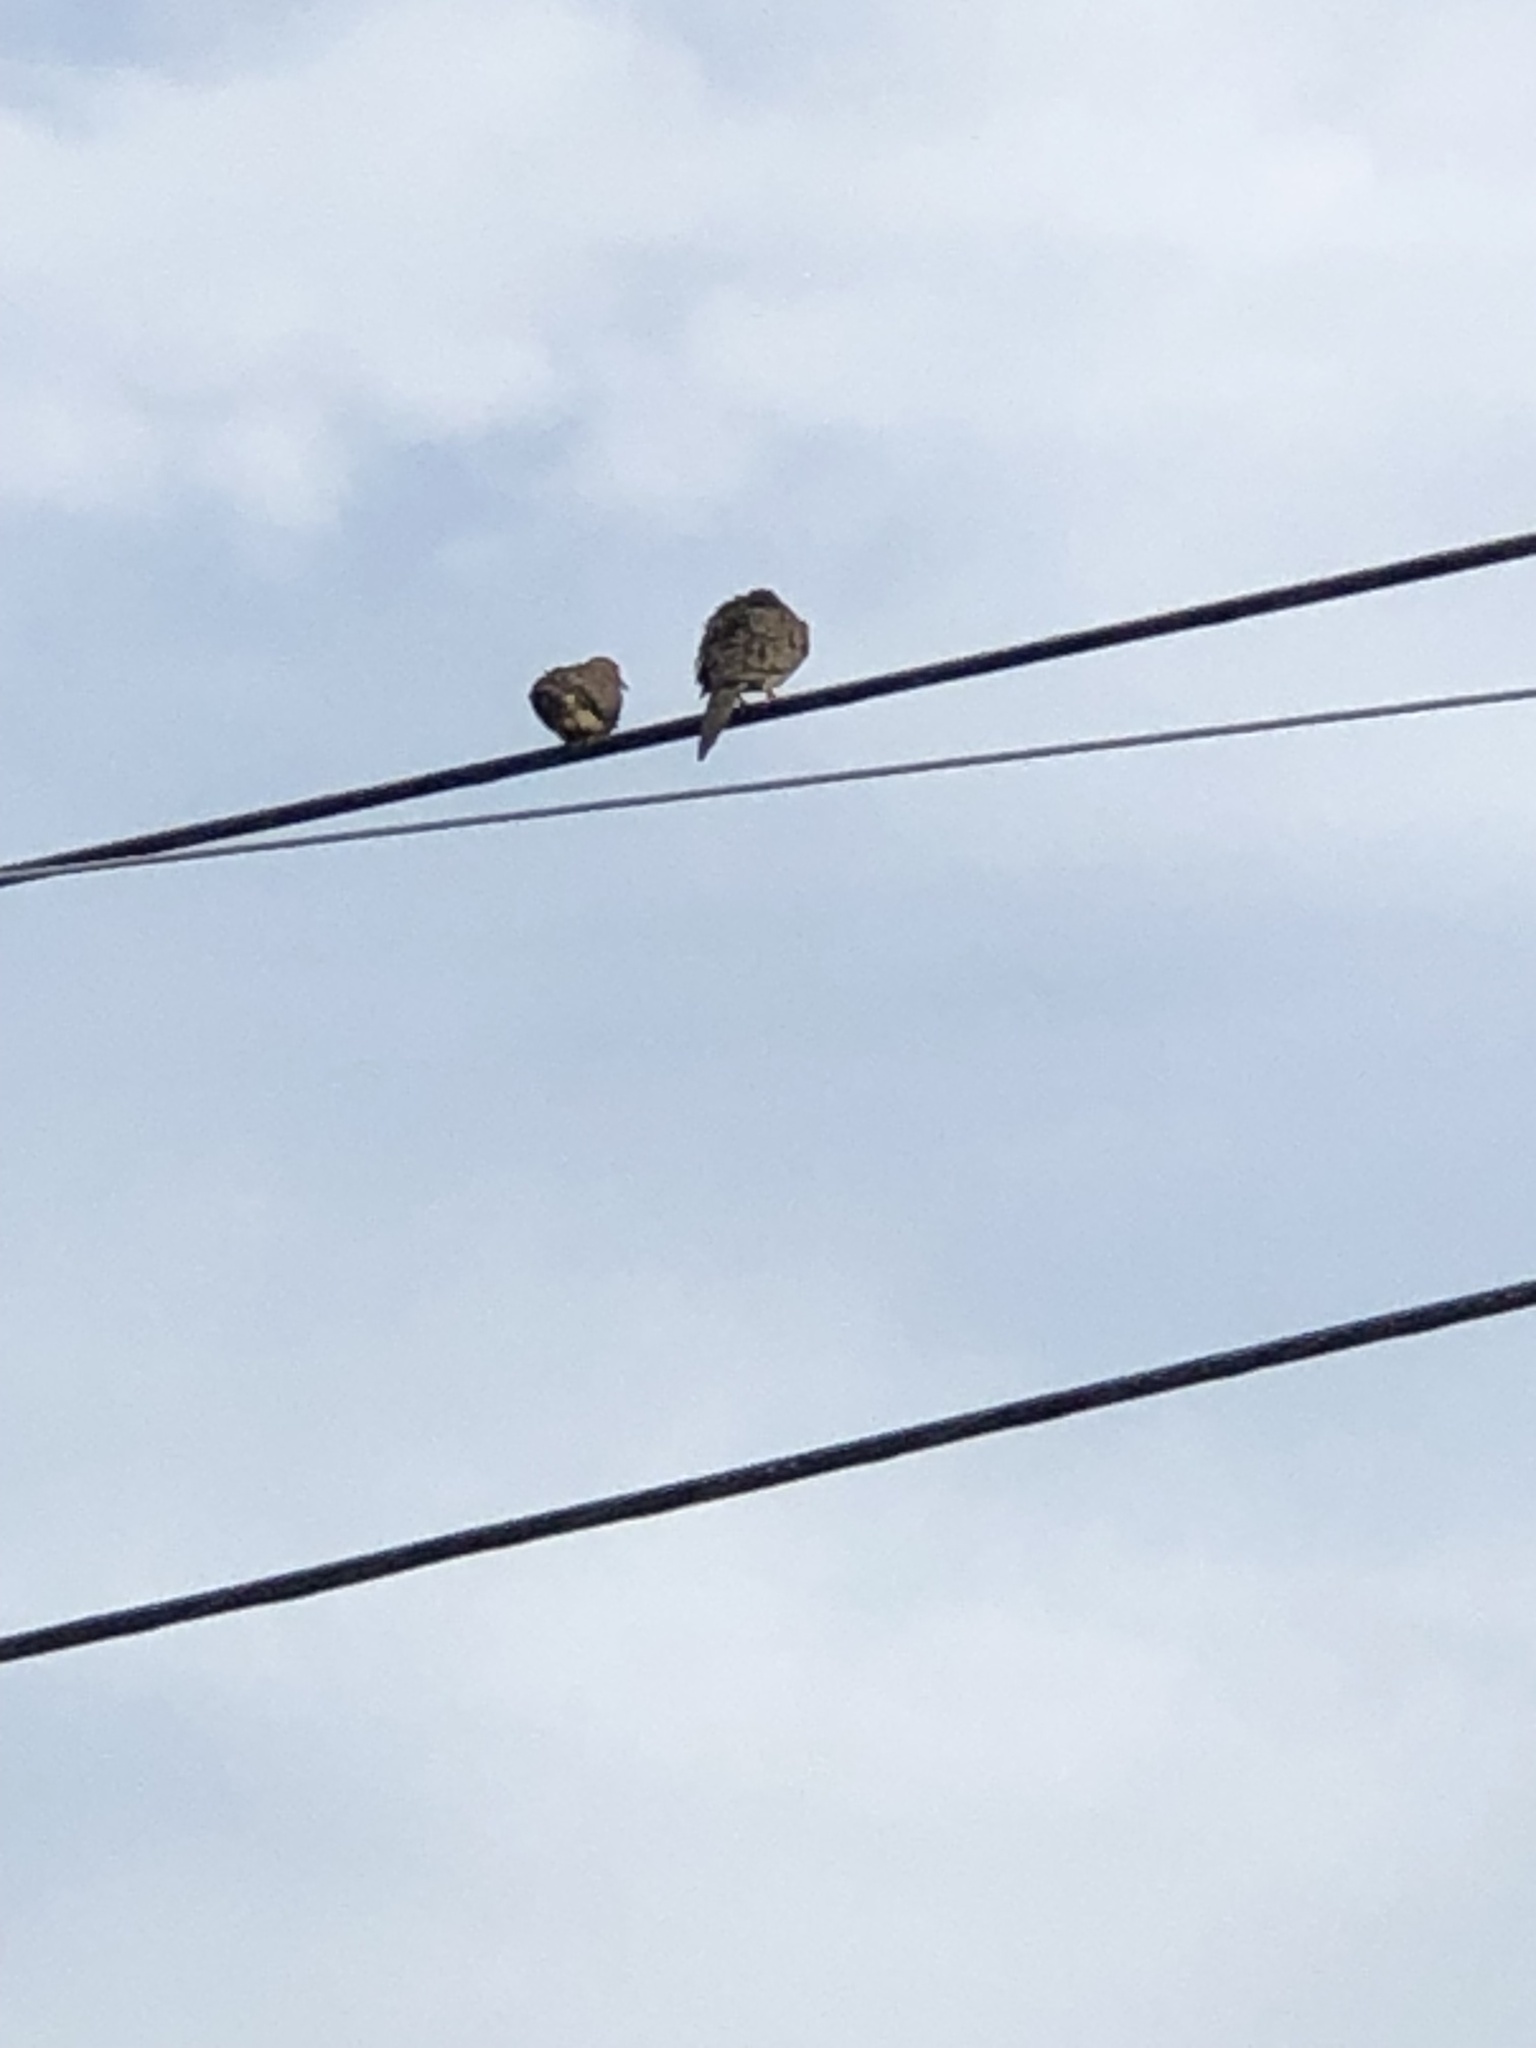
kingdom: Animalia
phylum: Chordata
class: Aves
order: Columbiformes
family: Columbidae
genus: Zenaida
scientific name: Zenaida macroura
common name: Mourning dove
